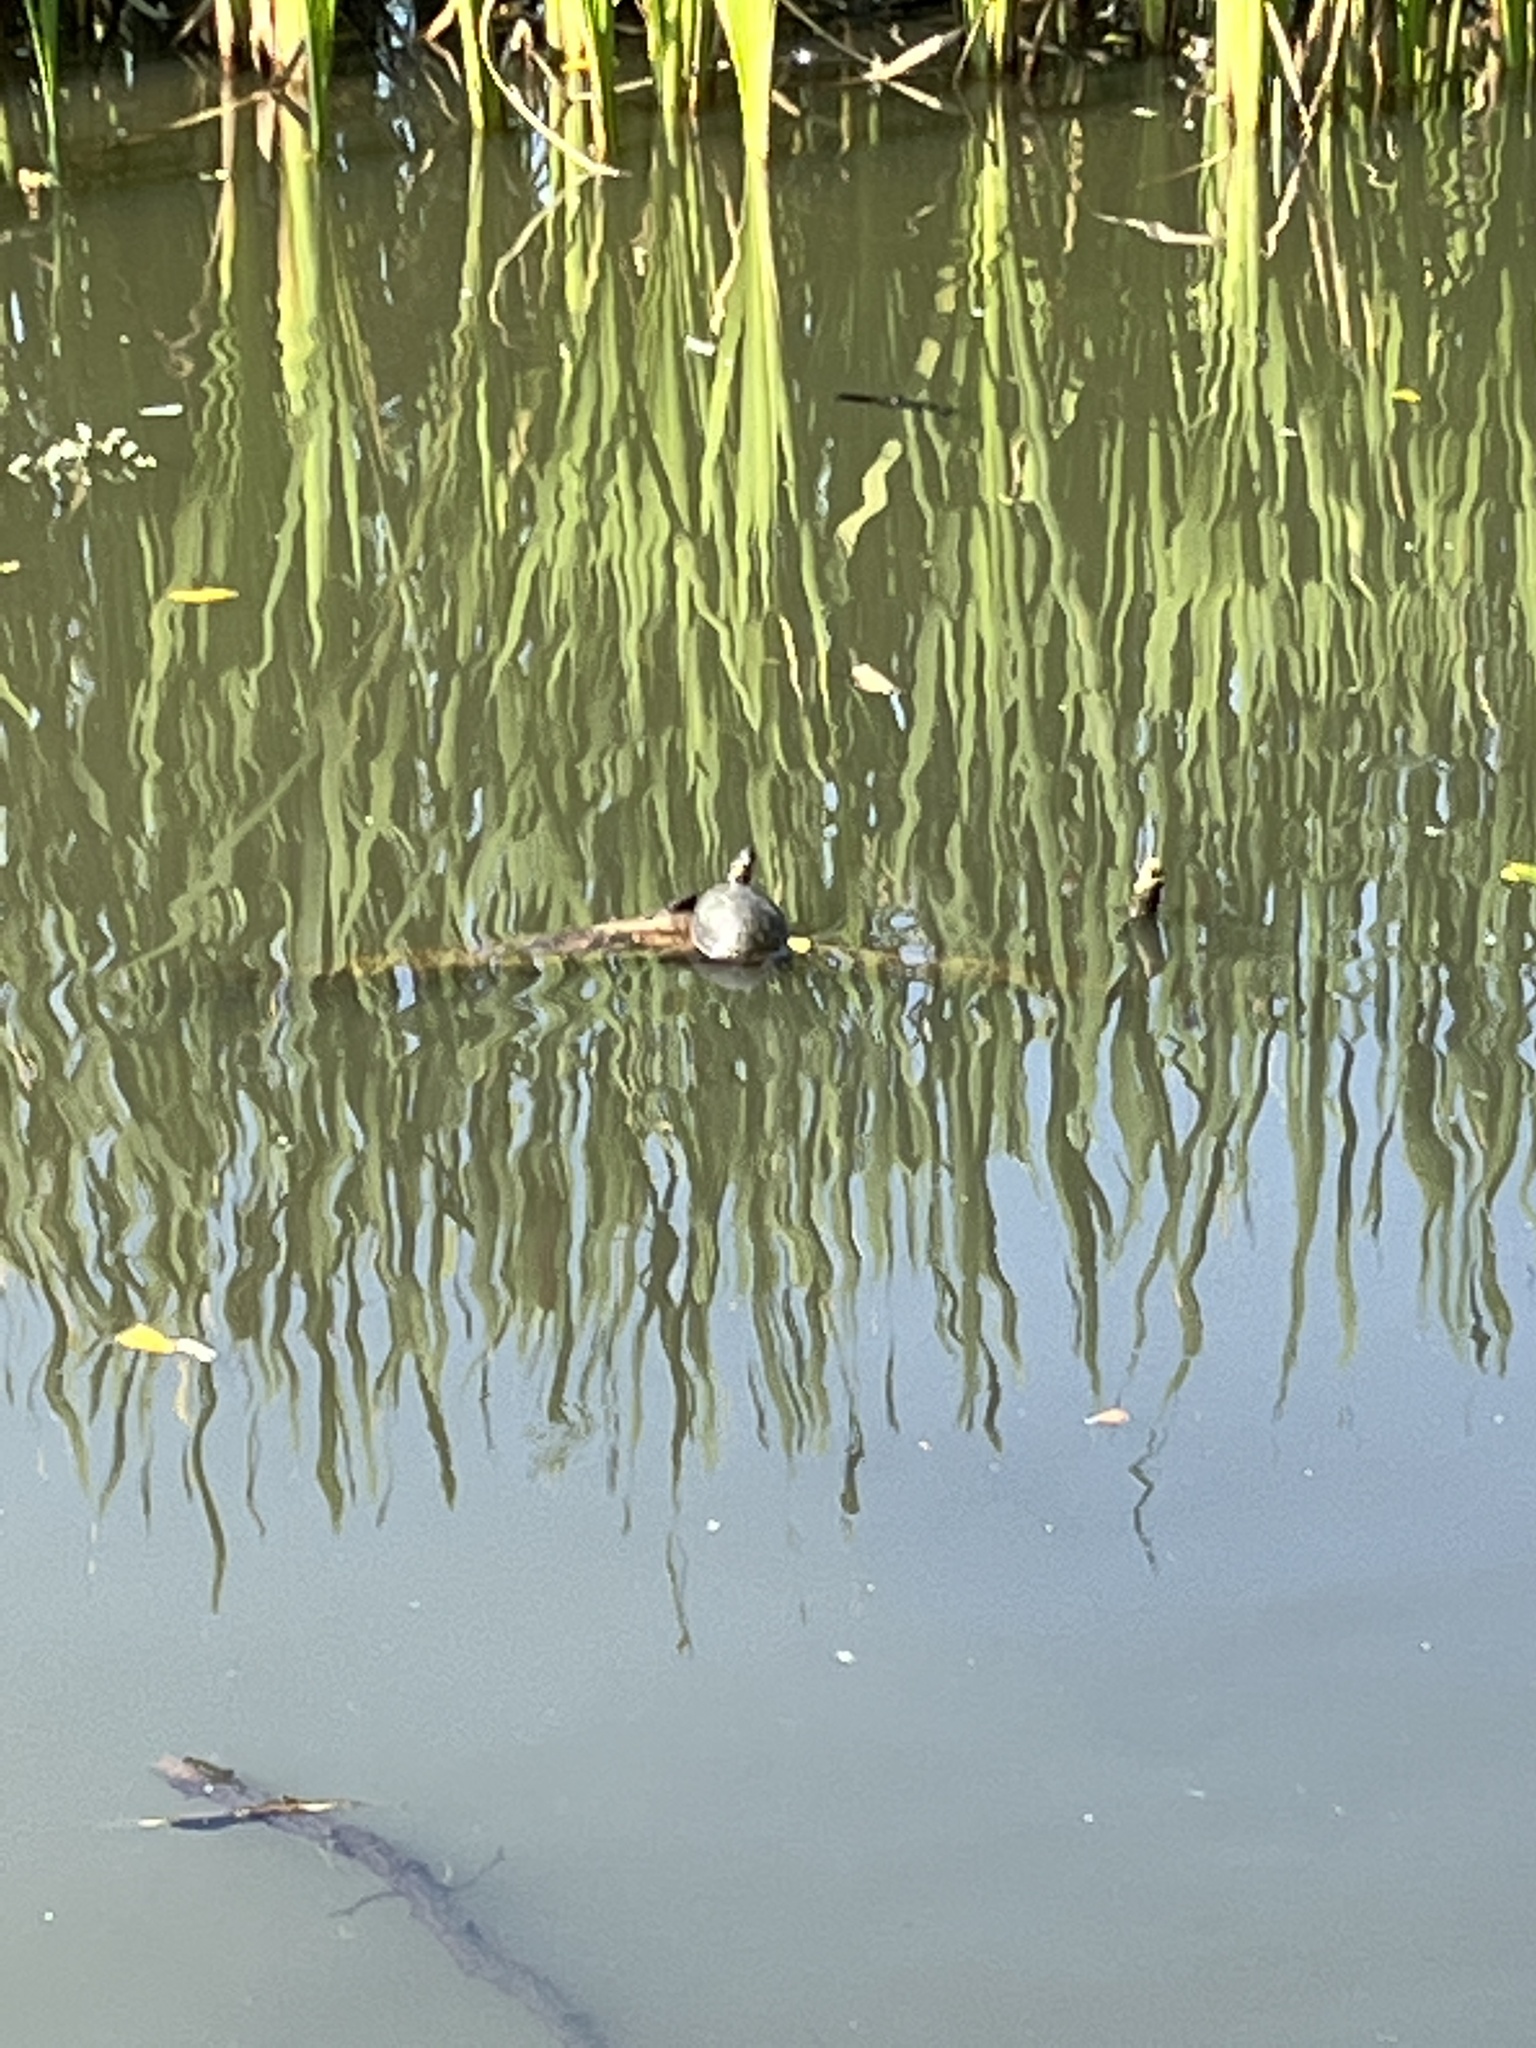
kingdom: Animalia
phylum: Chordata
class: Testudines
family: Emydidae
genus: Chrysemys
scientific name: Chrysemys picta
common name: Painted turtle
